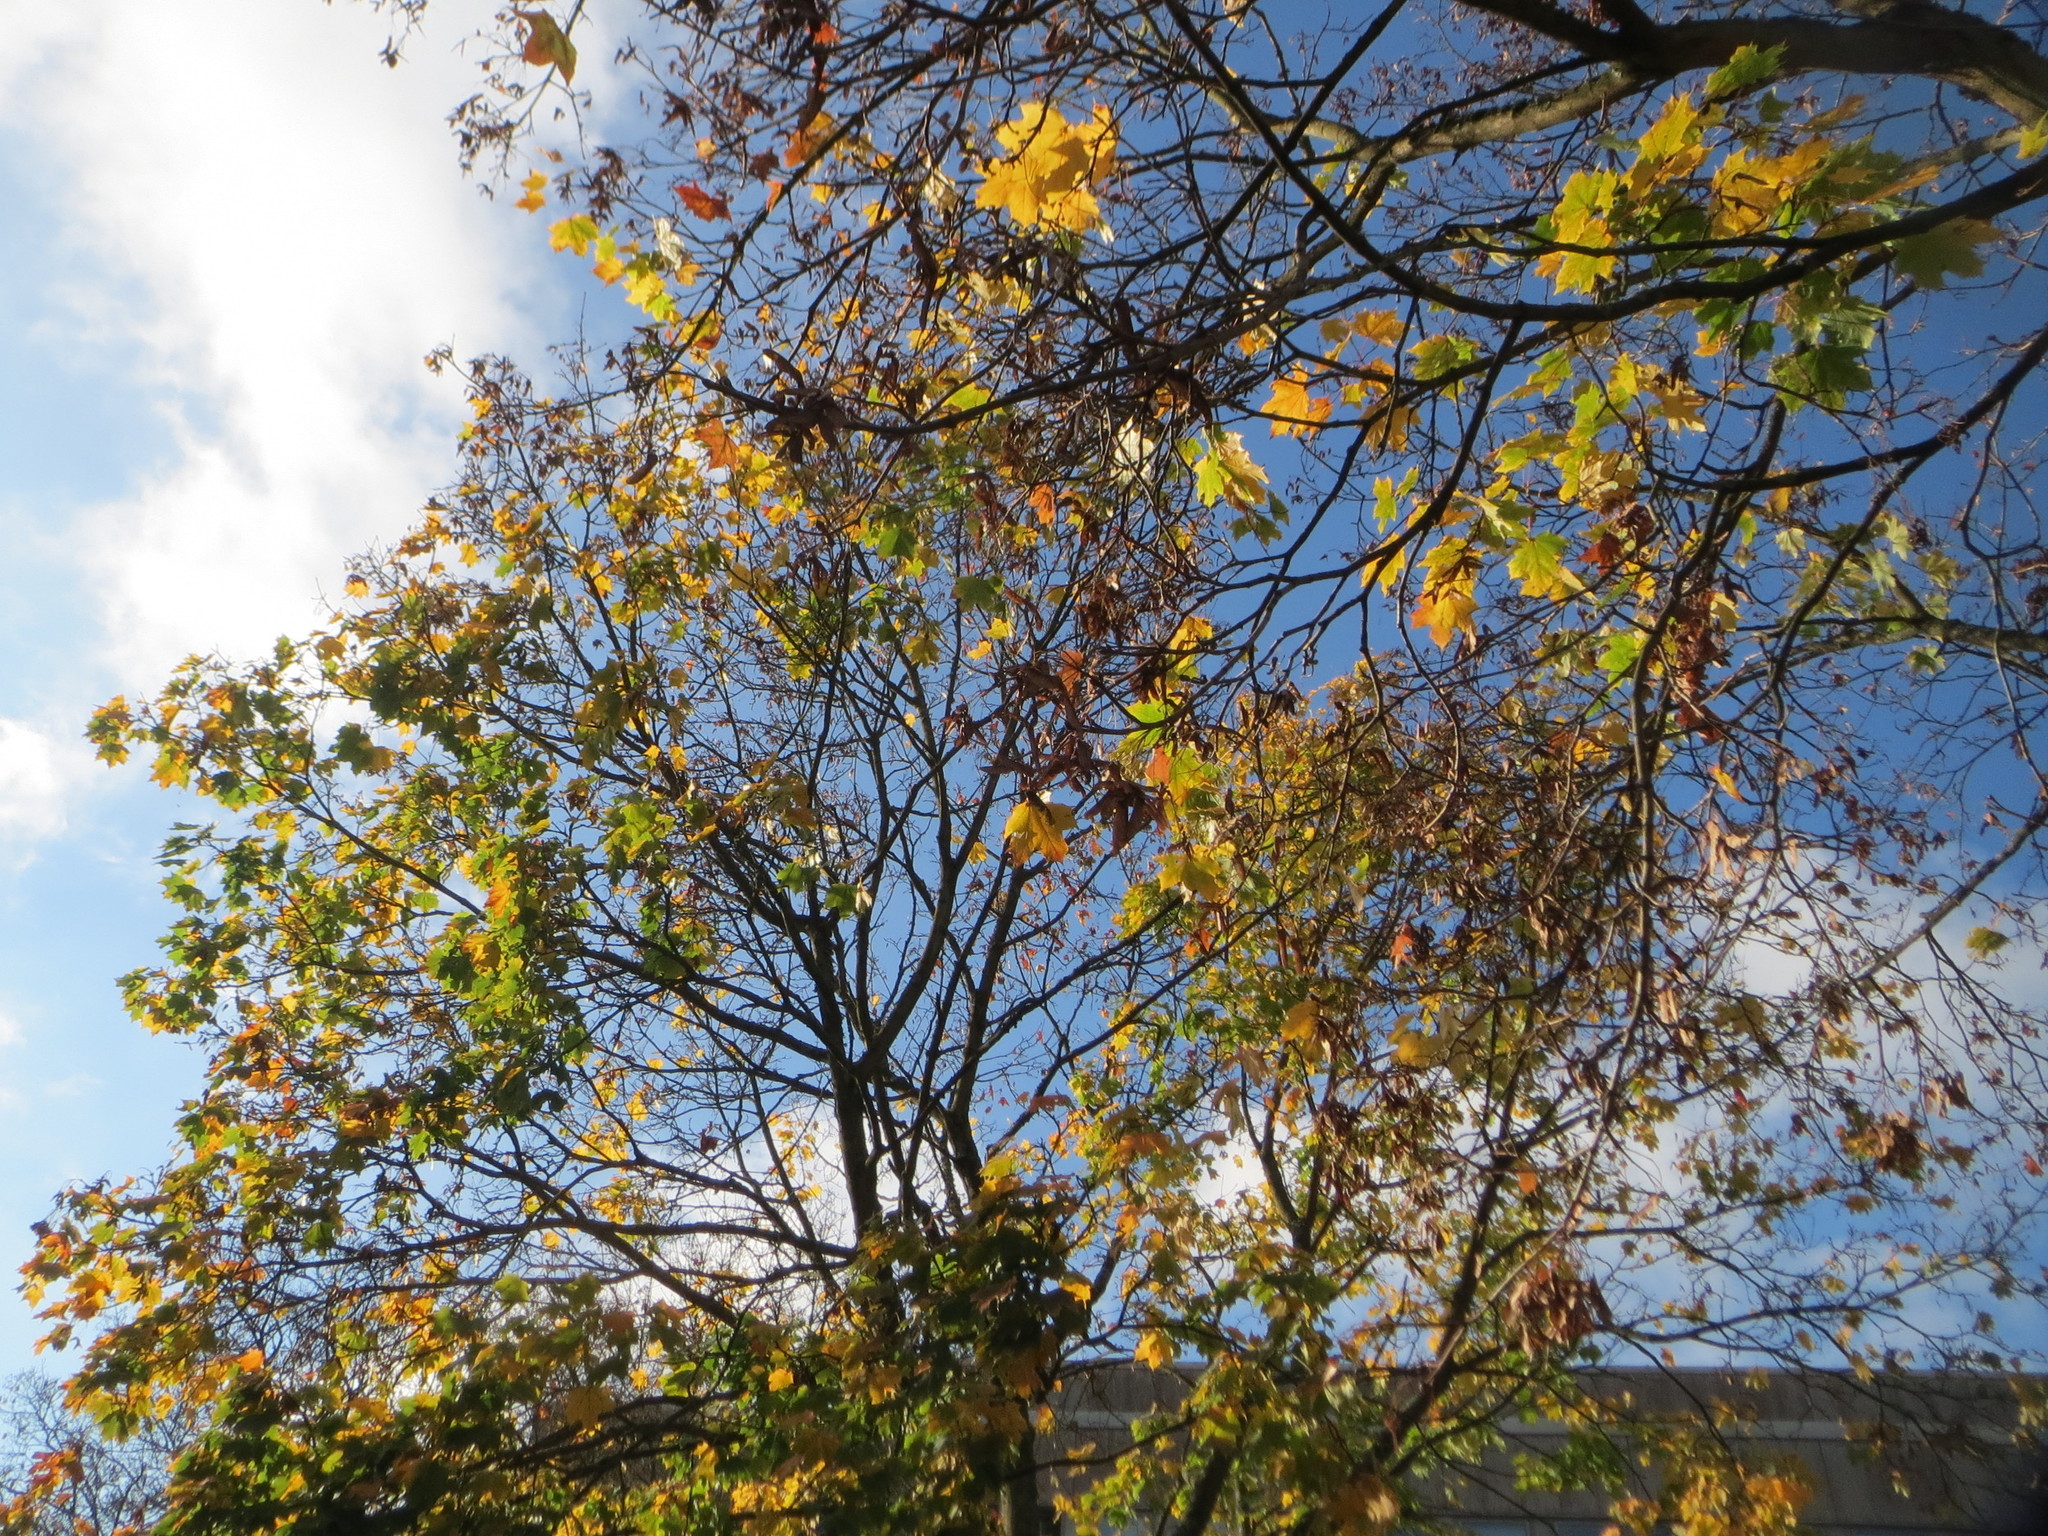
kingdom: Plantae
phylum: Tracheophyta
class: Magnoliopsida
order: Sapindales
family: Sapindaceae
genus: Acer
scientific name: Acer platanoides
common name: Norway maple
